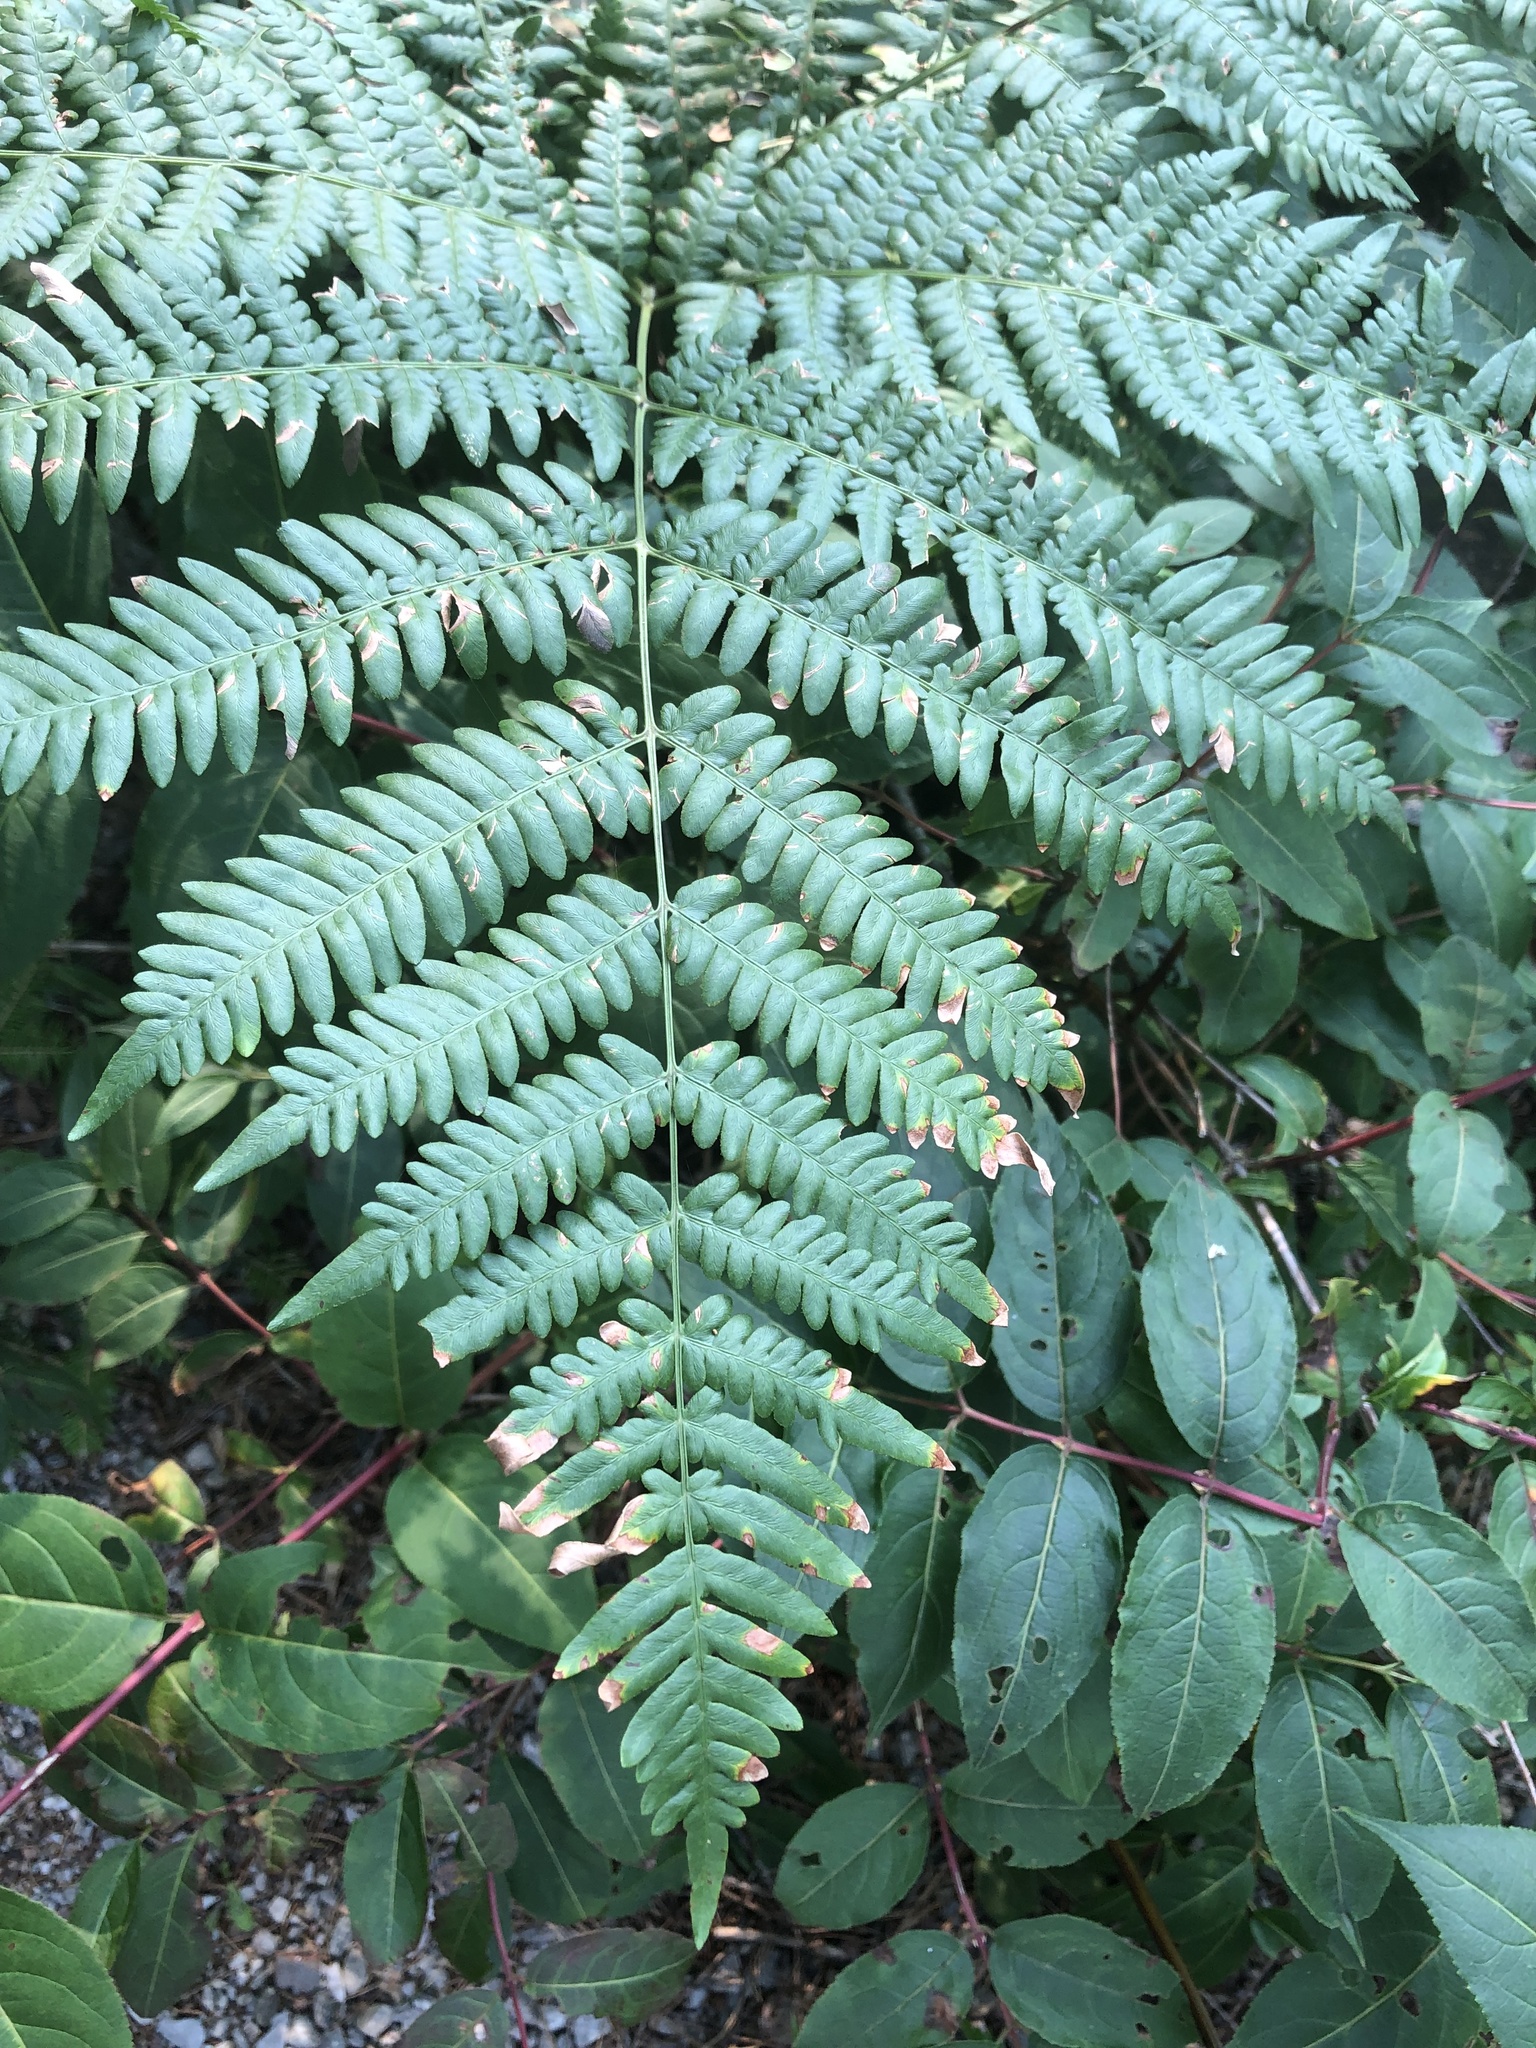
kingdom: Plantae
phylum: Tracheophyta
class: Polypodiopsida
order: Polypodiales
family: Dennstaedtiaceae
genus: Pteridium
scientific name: Pteridium aquilinum
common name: Bracken
